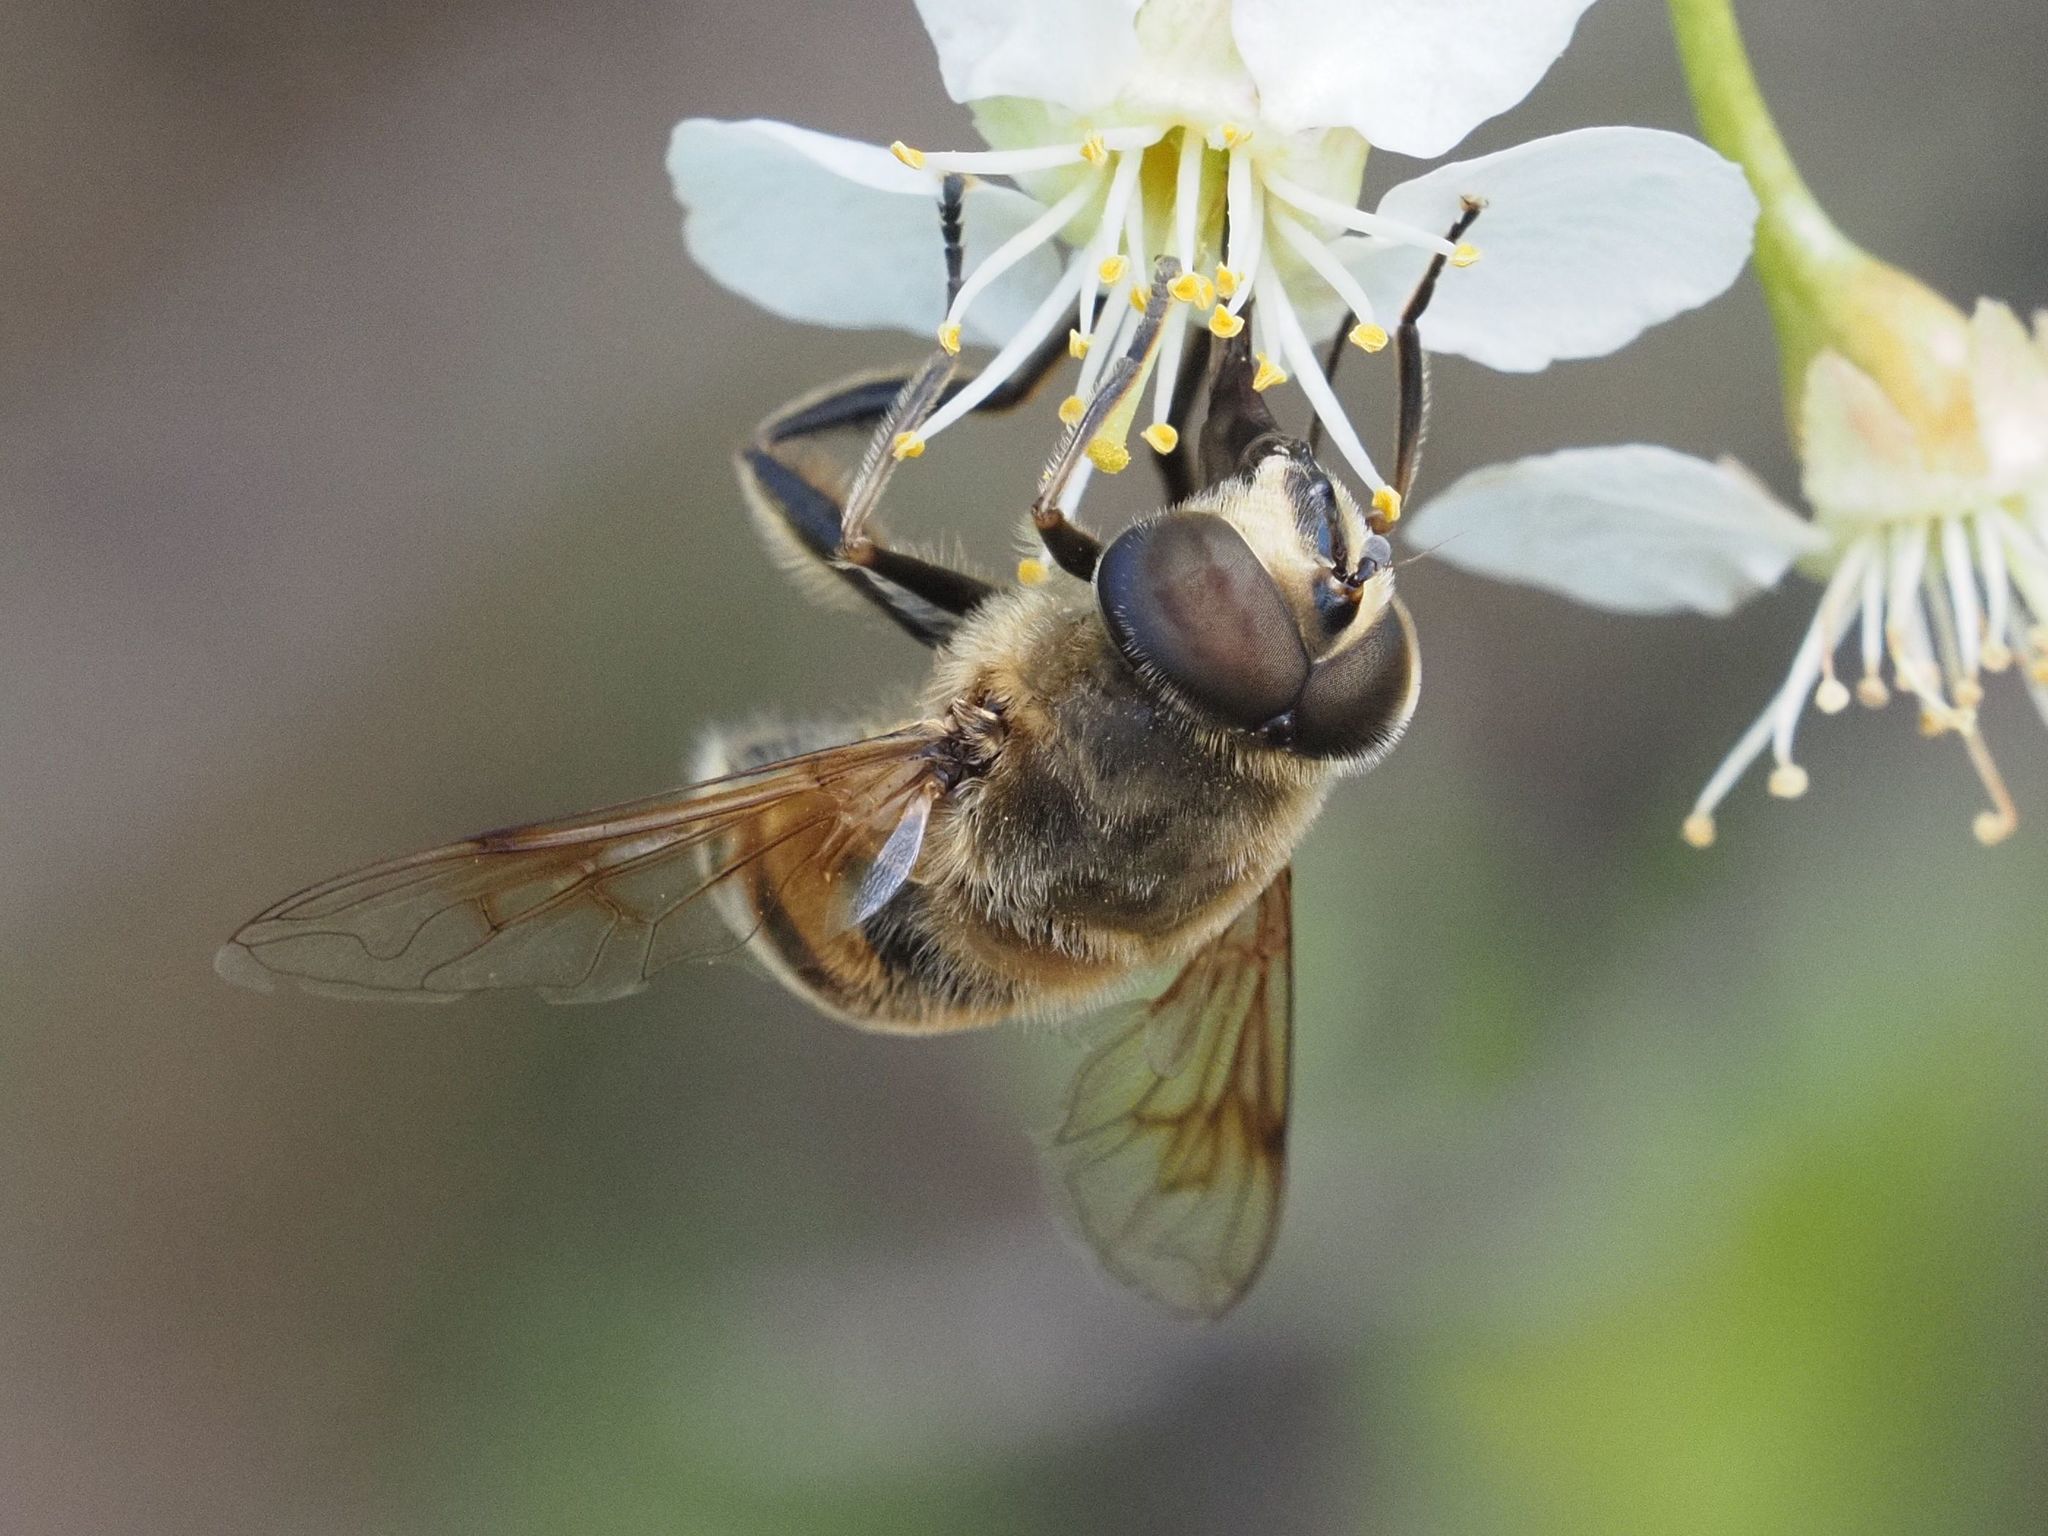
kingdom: Animalia
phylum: Arthropoda
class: Insecta
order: Diptera
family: Syrphidae
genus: Eristalis
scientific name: Eristalis tenax
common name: Drone fly
